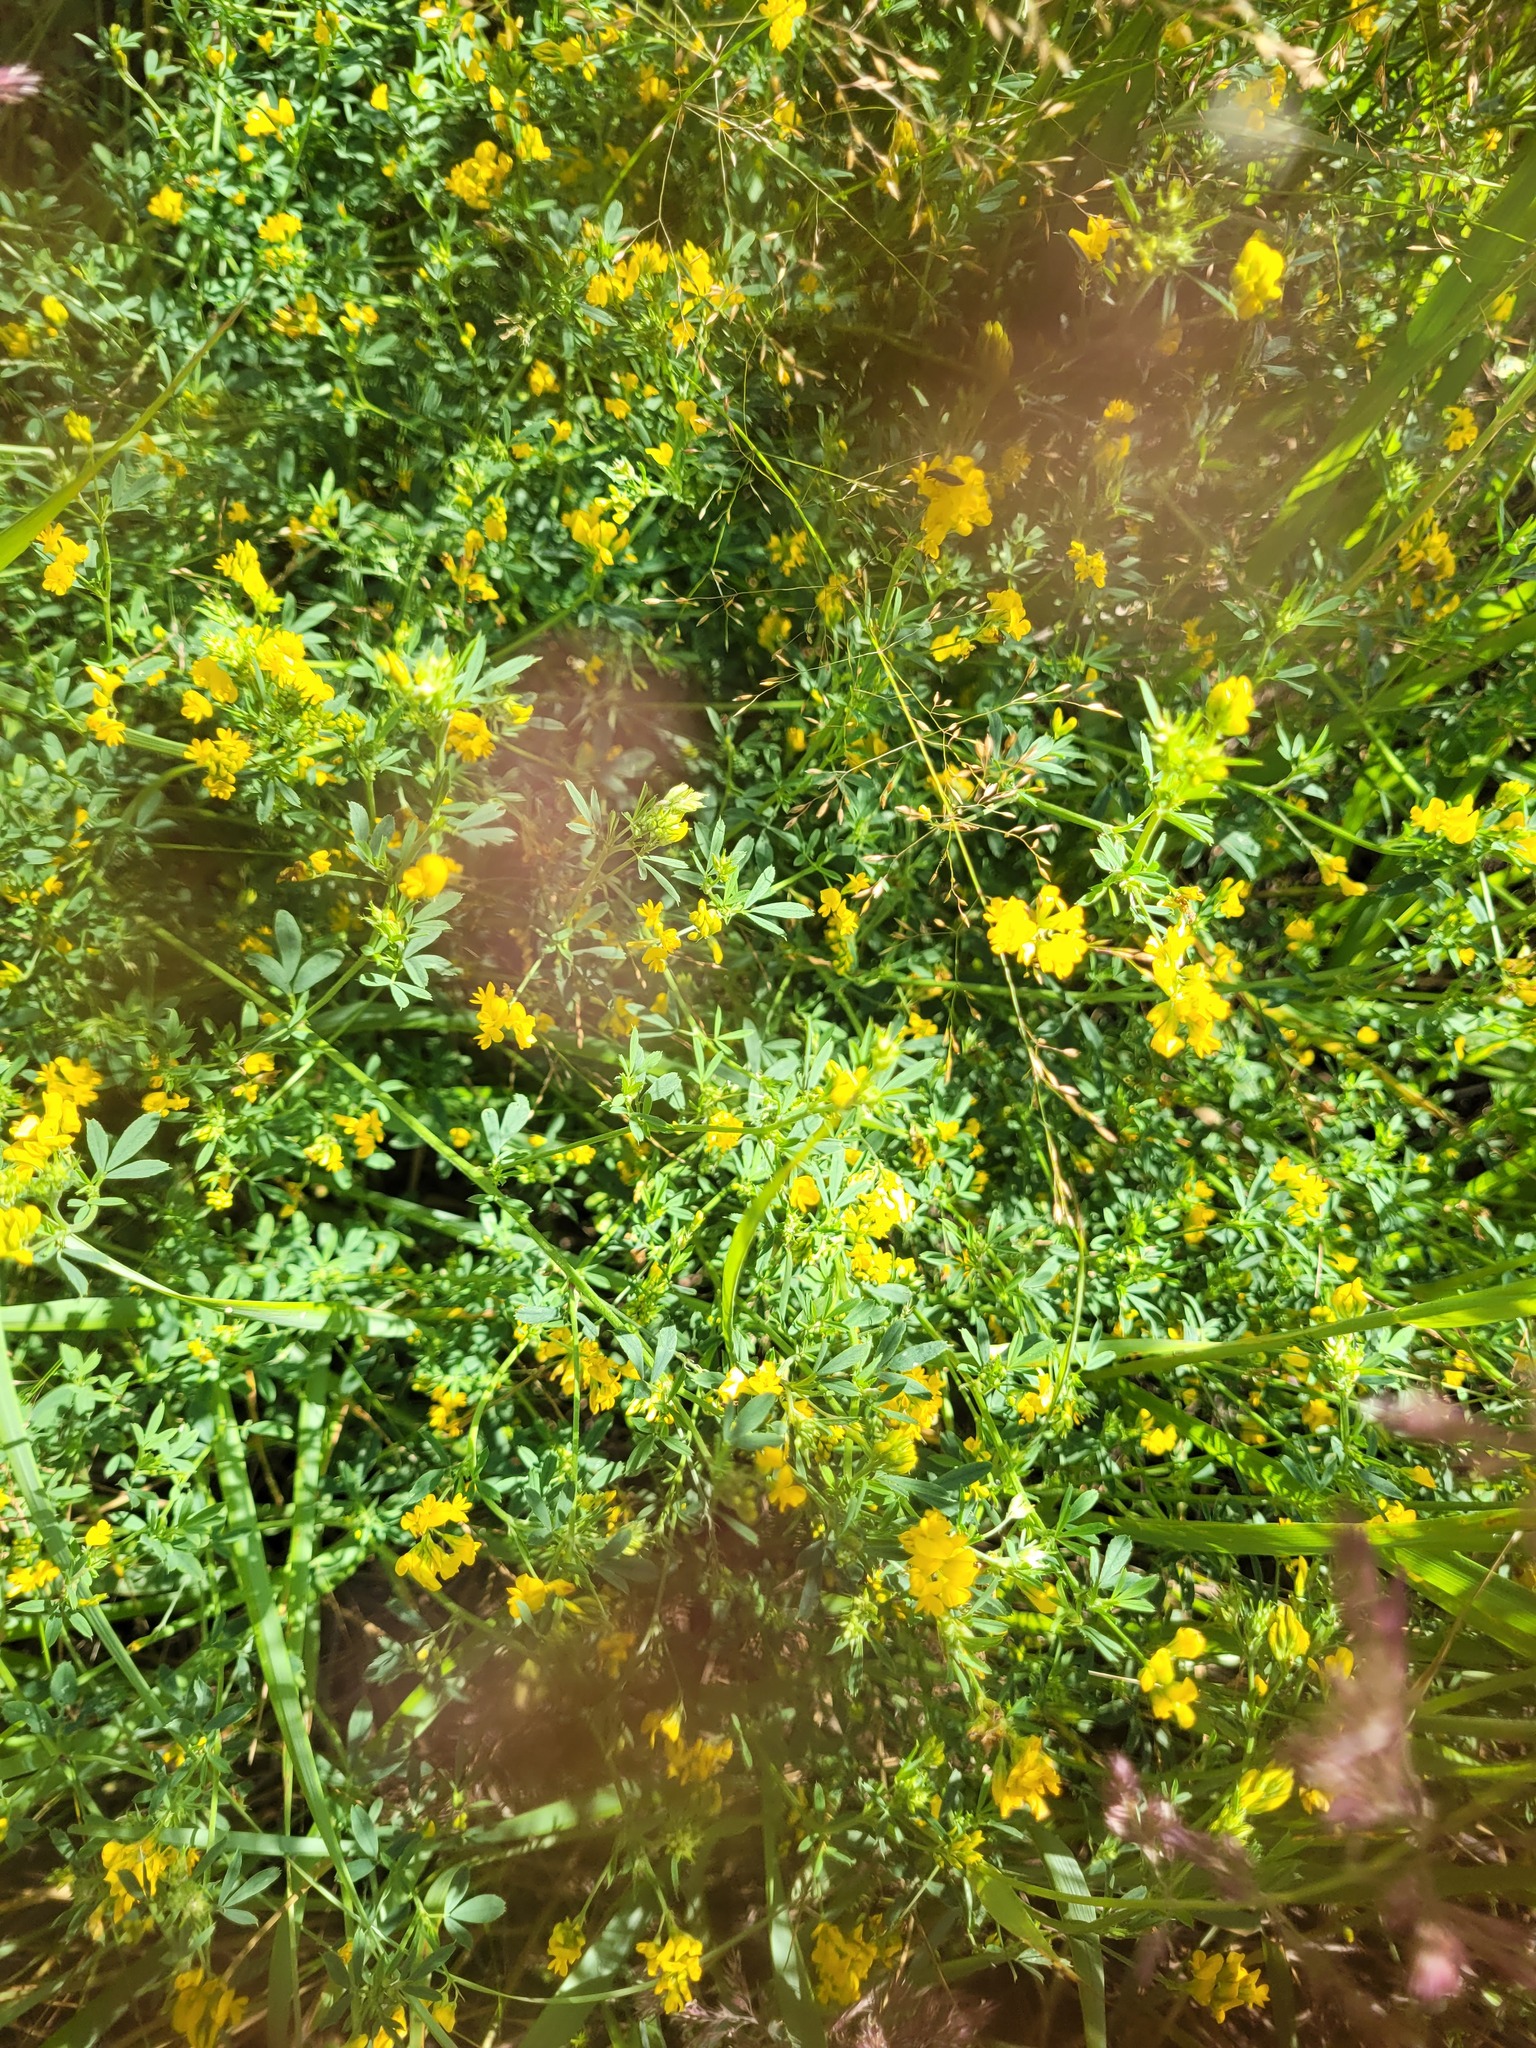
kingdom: Plantae
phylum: Tracheophyta
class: Magnoliopsida
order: Fabales
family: Fabaceae
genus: Medicago
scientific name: Medicago falcata
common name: Sickle medick
